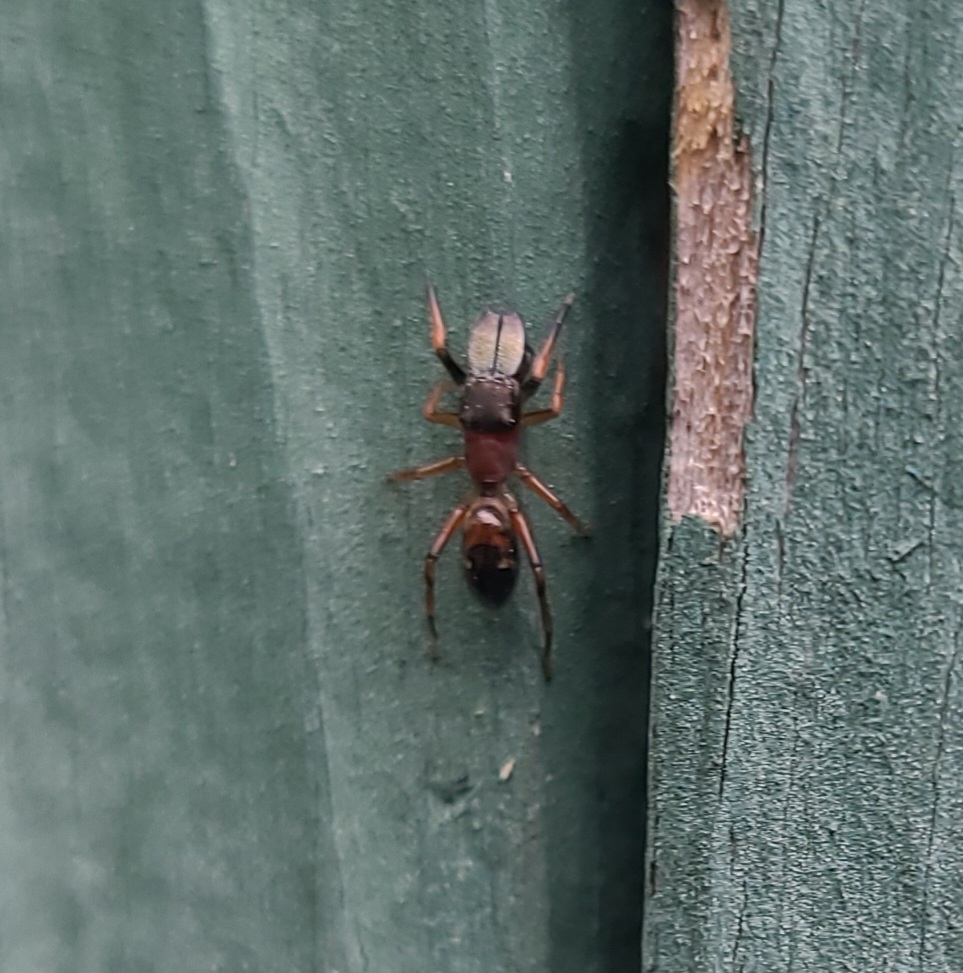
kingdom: Animalia
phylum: Arthropoda
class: Arachnida
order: Araneae
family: Salticidae
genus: Myrmarachne
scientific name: Myrmarachne formicaria
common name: Ant mimic jumping spider
